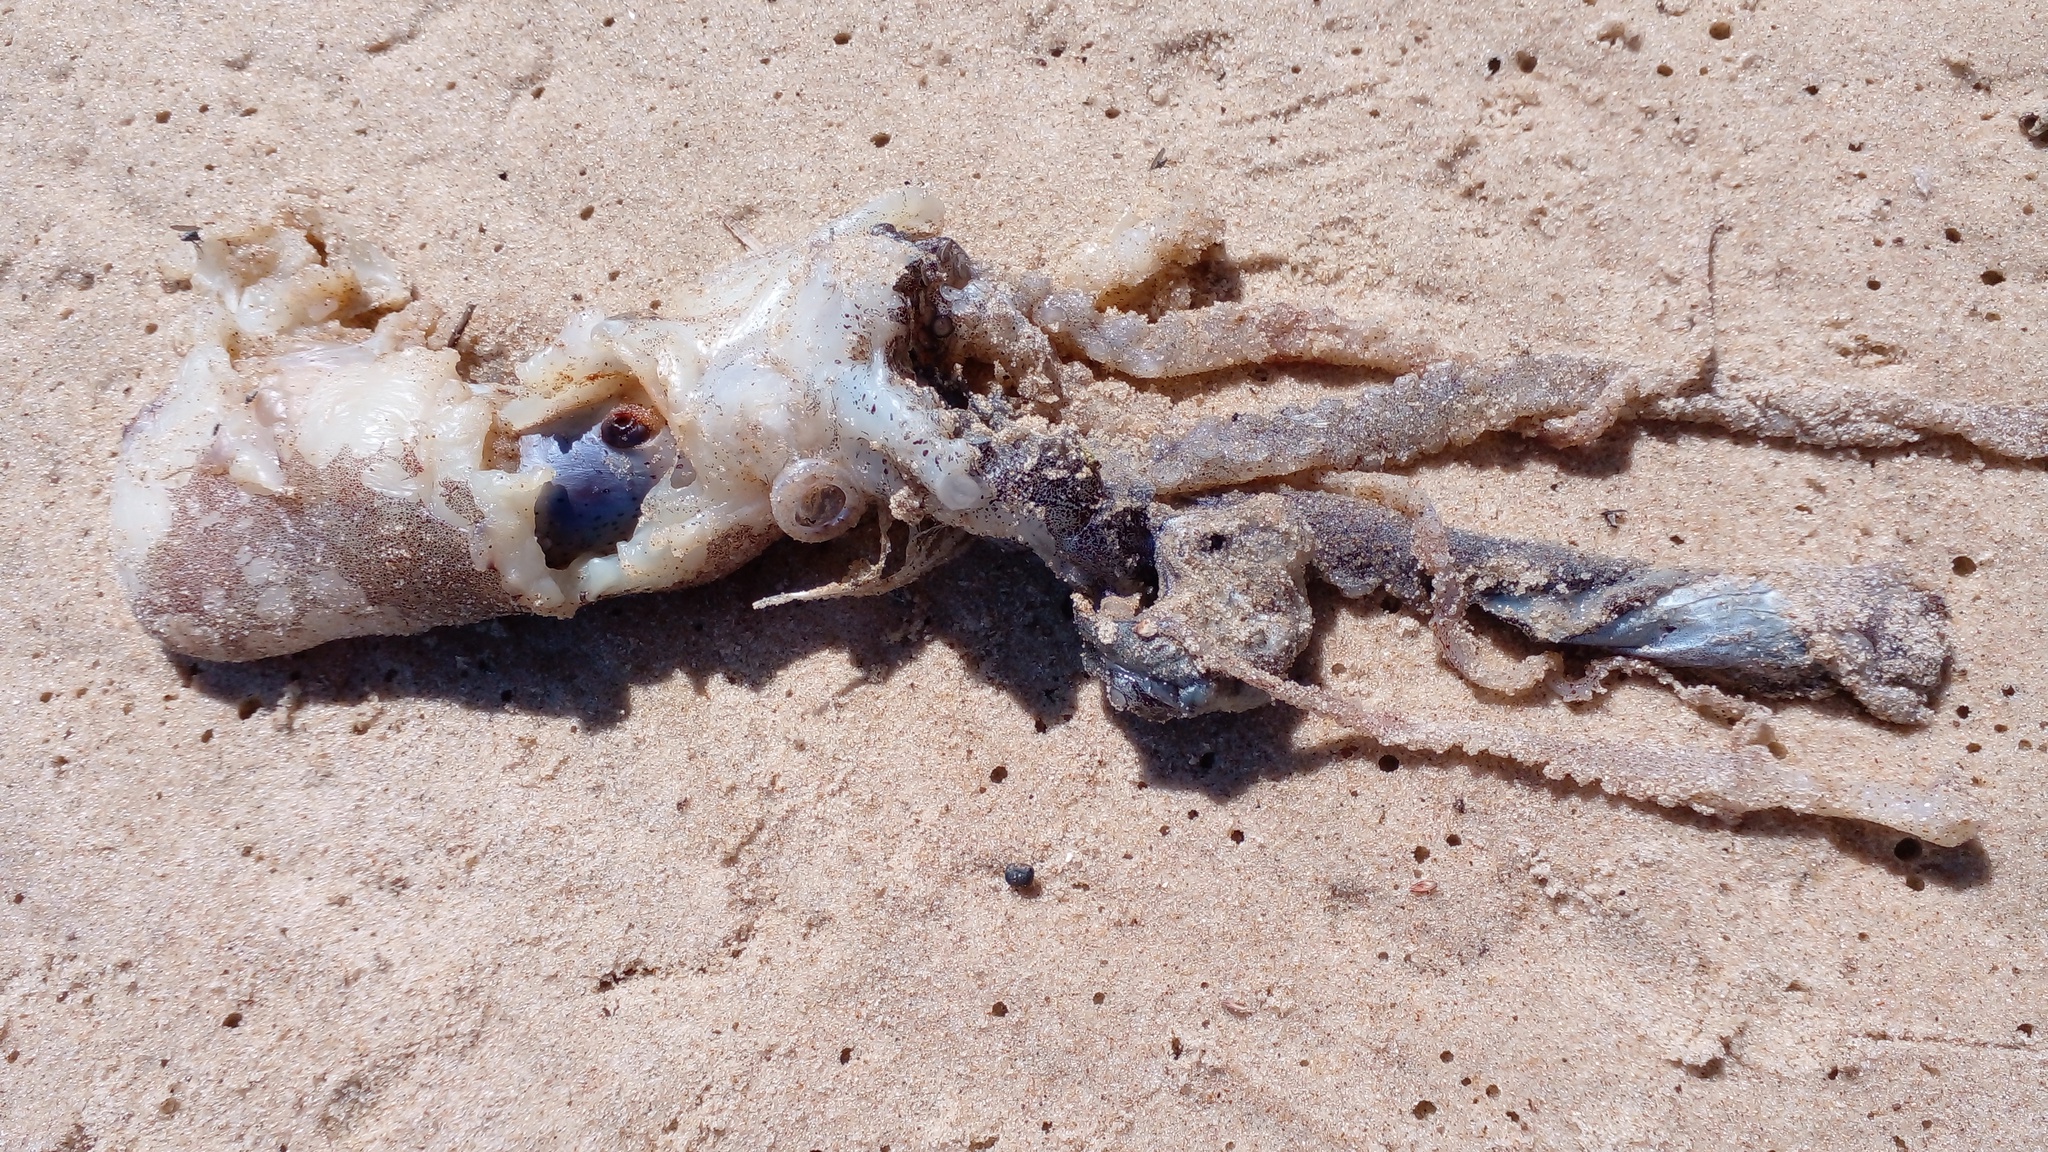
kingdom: Animalia
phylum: Mollusca
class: Cephalopoda
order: Octopoda
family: Argonautidae
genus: Argonauta
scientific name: Argonauta nodosus
